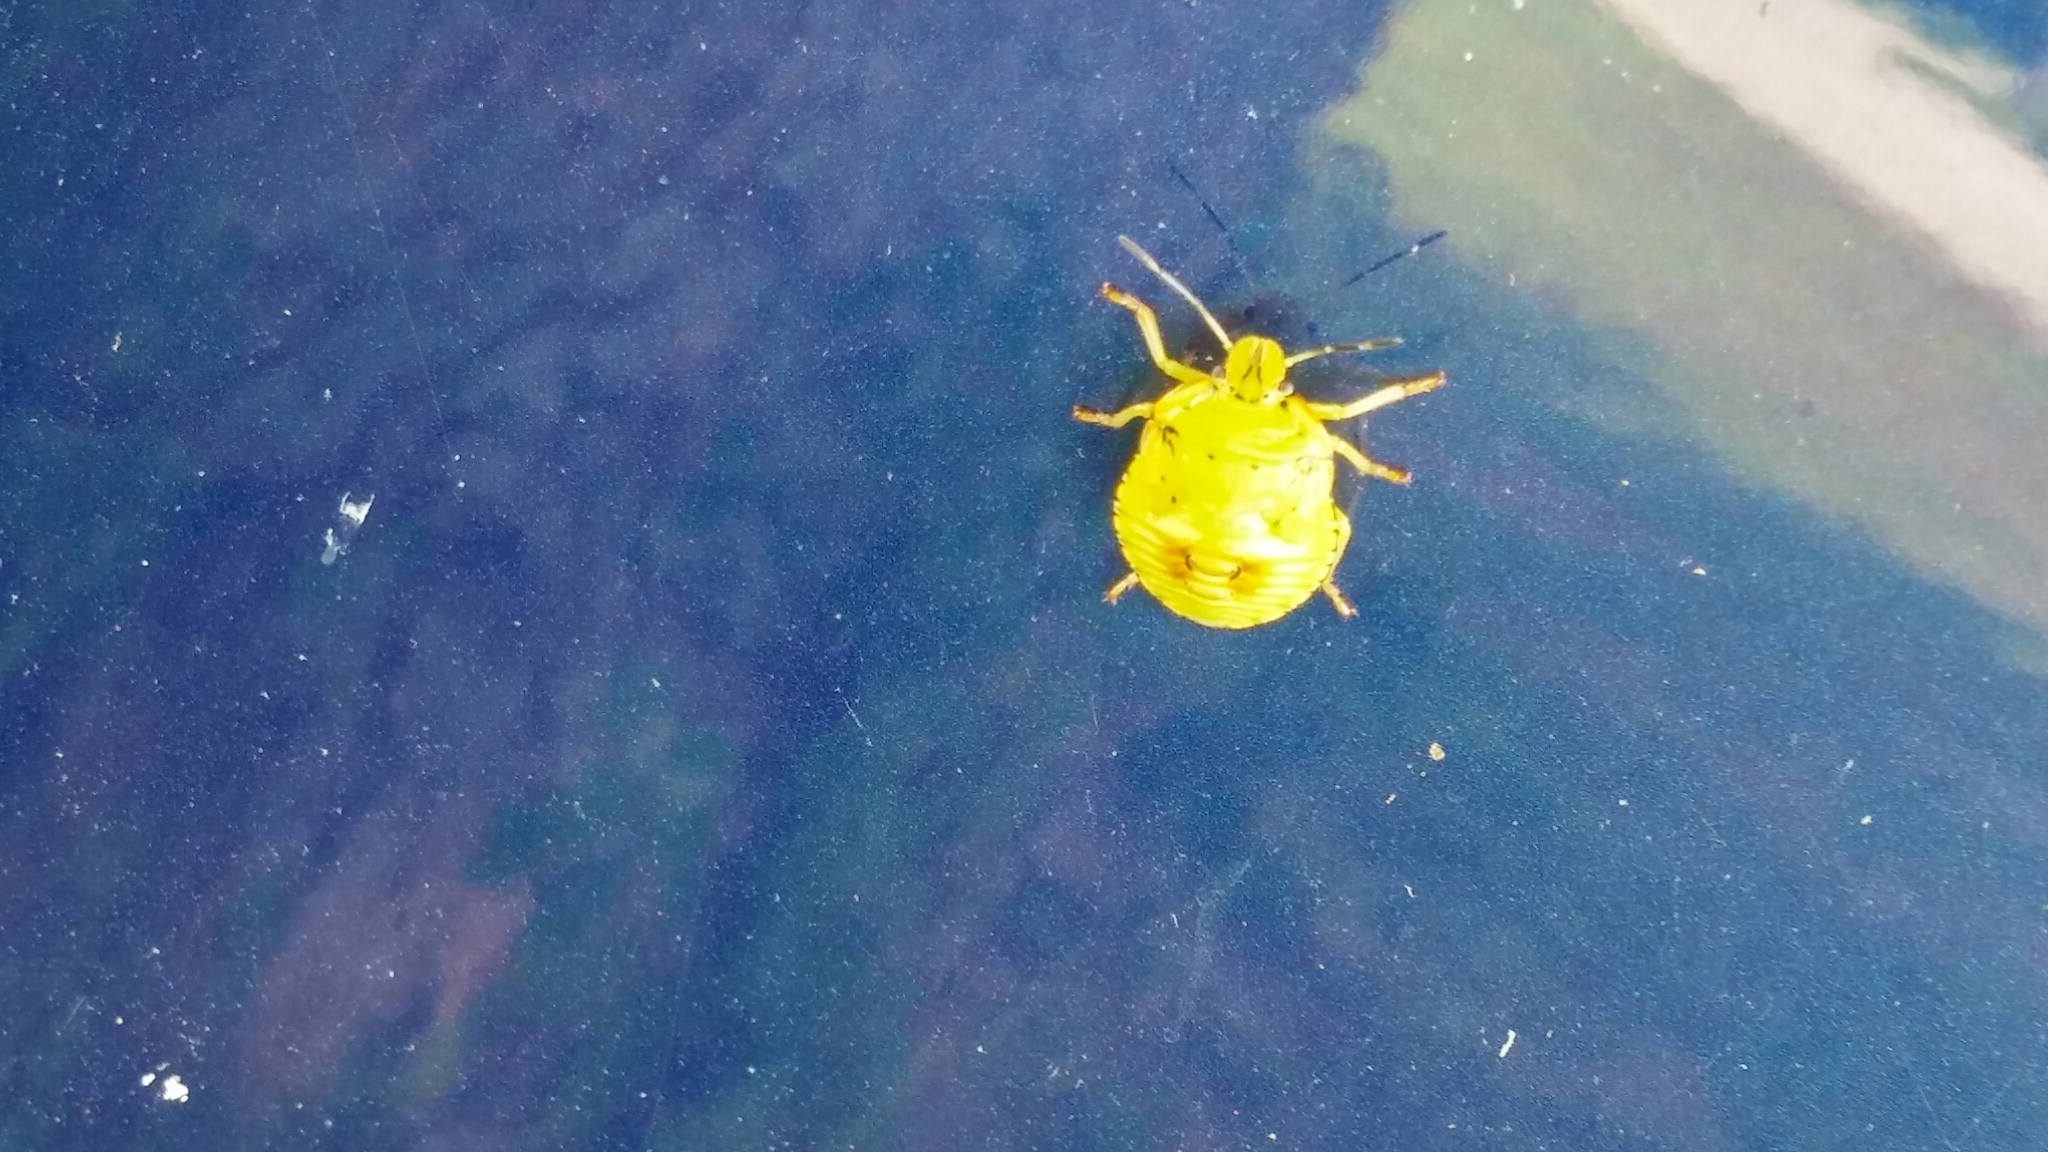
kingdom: Animalia
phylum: Arthropoda
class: Insecta
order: Hemiptera
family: Pentatomidae
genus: Chinavia
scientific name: Chinavia hilaris
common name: Green stink bug
